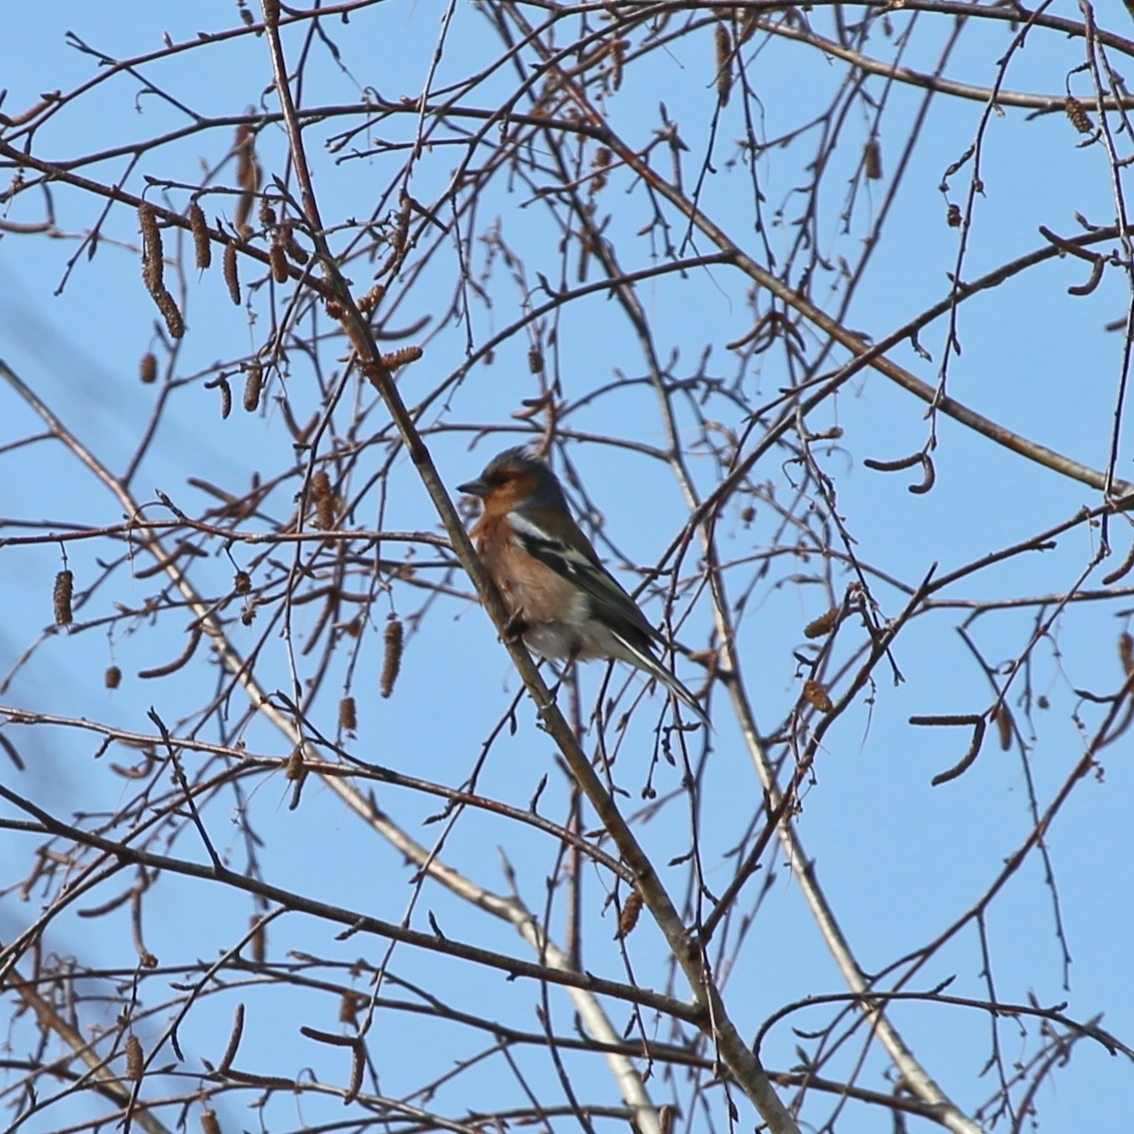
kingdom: Animalia
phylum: Chordata
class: Aves
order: Passeriformes
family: Fringillidae
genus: Fringilla
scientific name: Fringilla coelebs
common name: Common chaffinch
